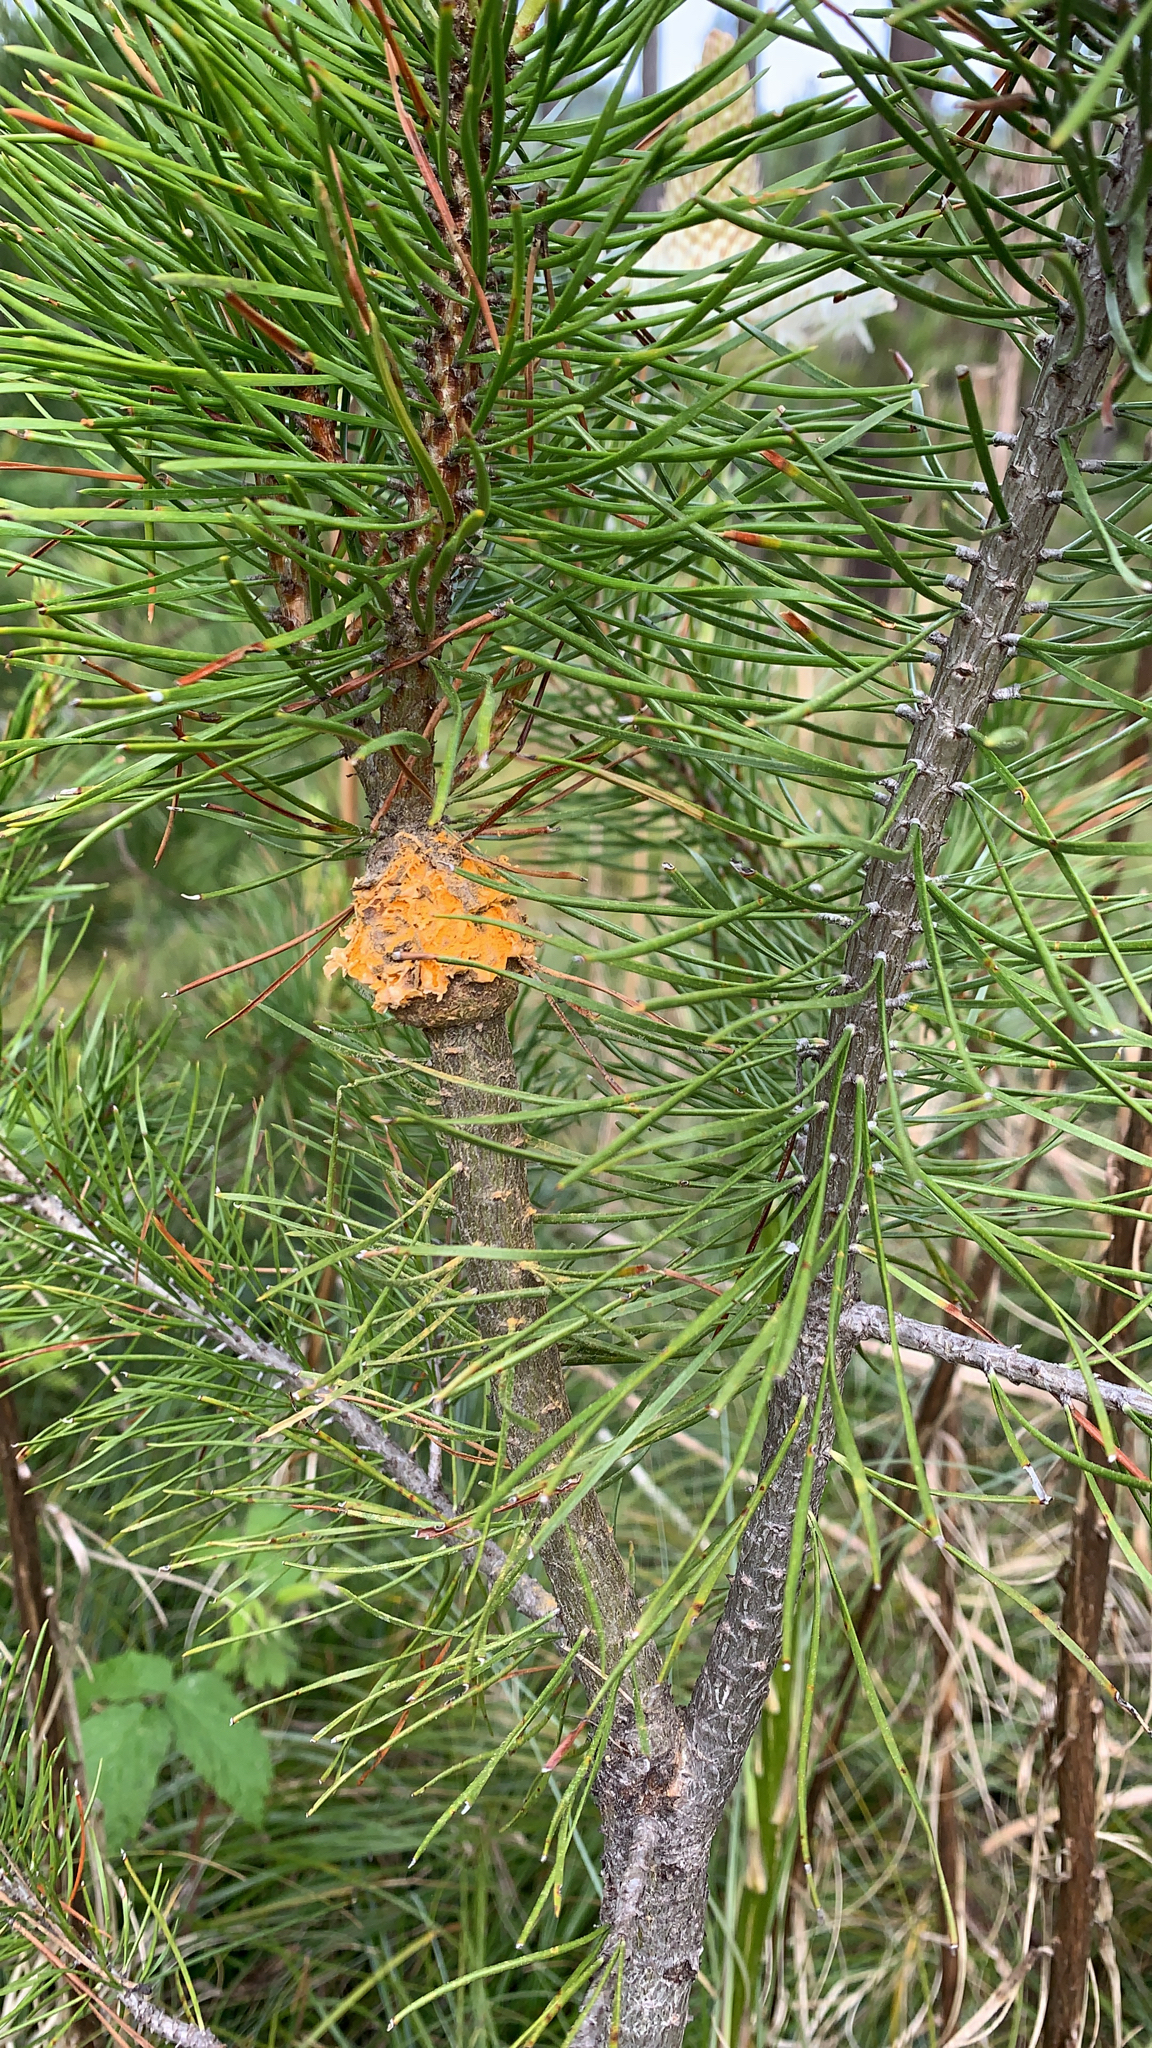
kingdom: Fungi
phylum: Basidiomycota
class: Pucciniomycetes
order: Pucciniales
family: Cronartiaceae
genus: Cronartium
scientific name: Cronartium harknessii
